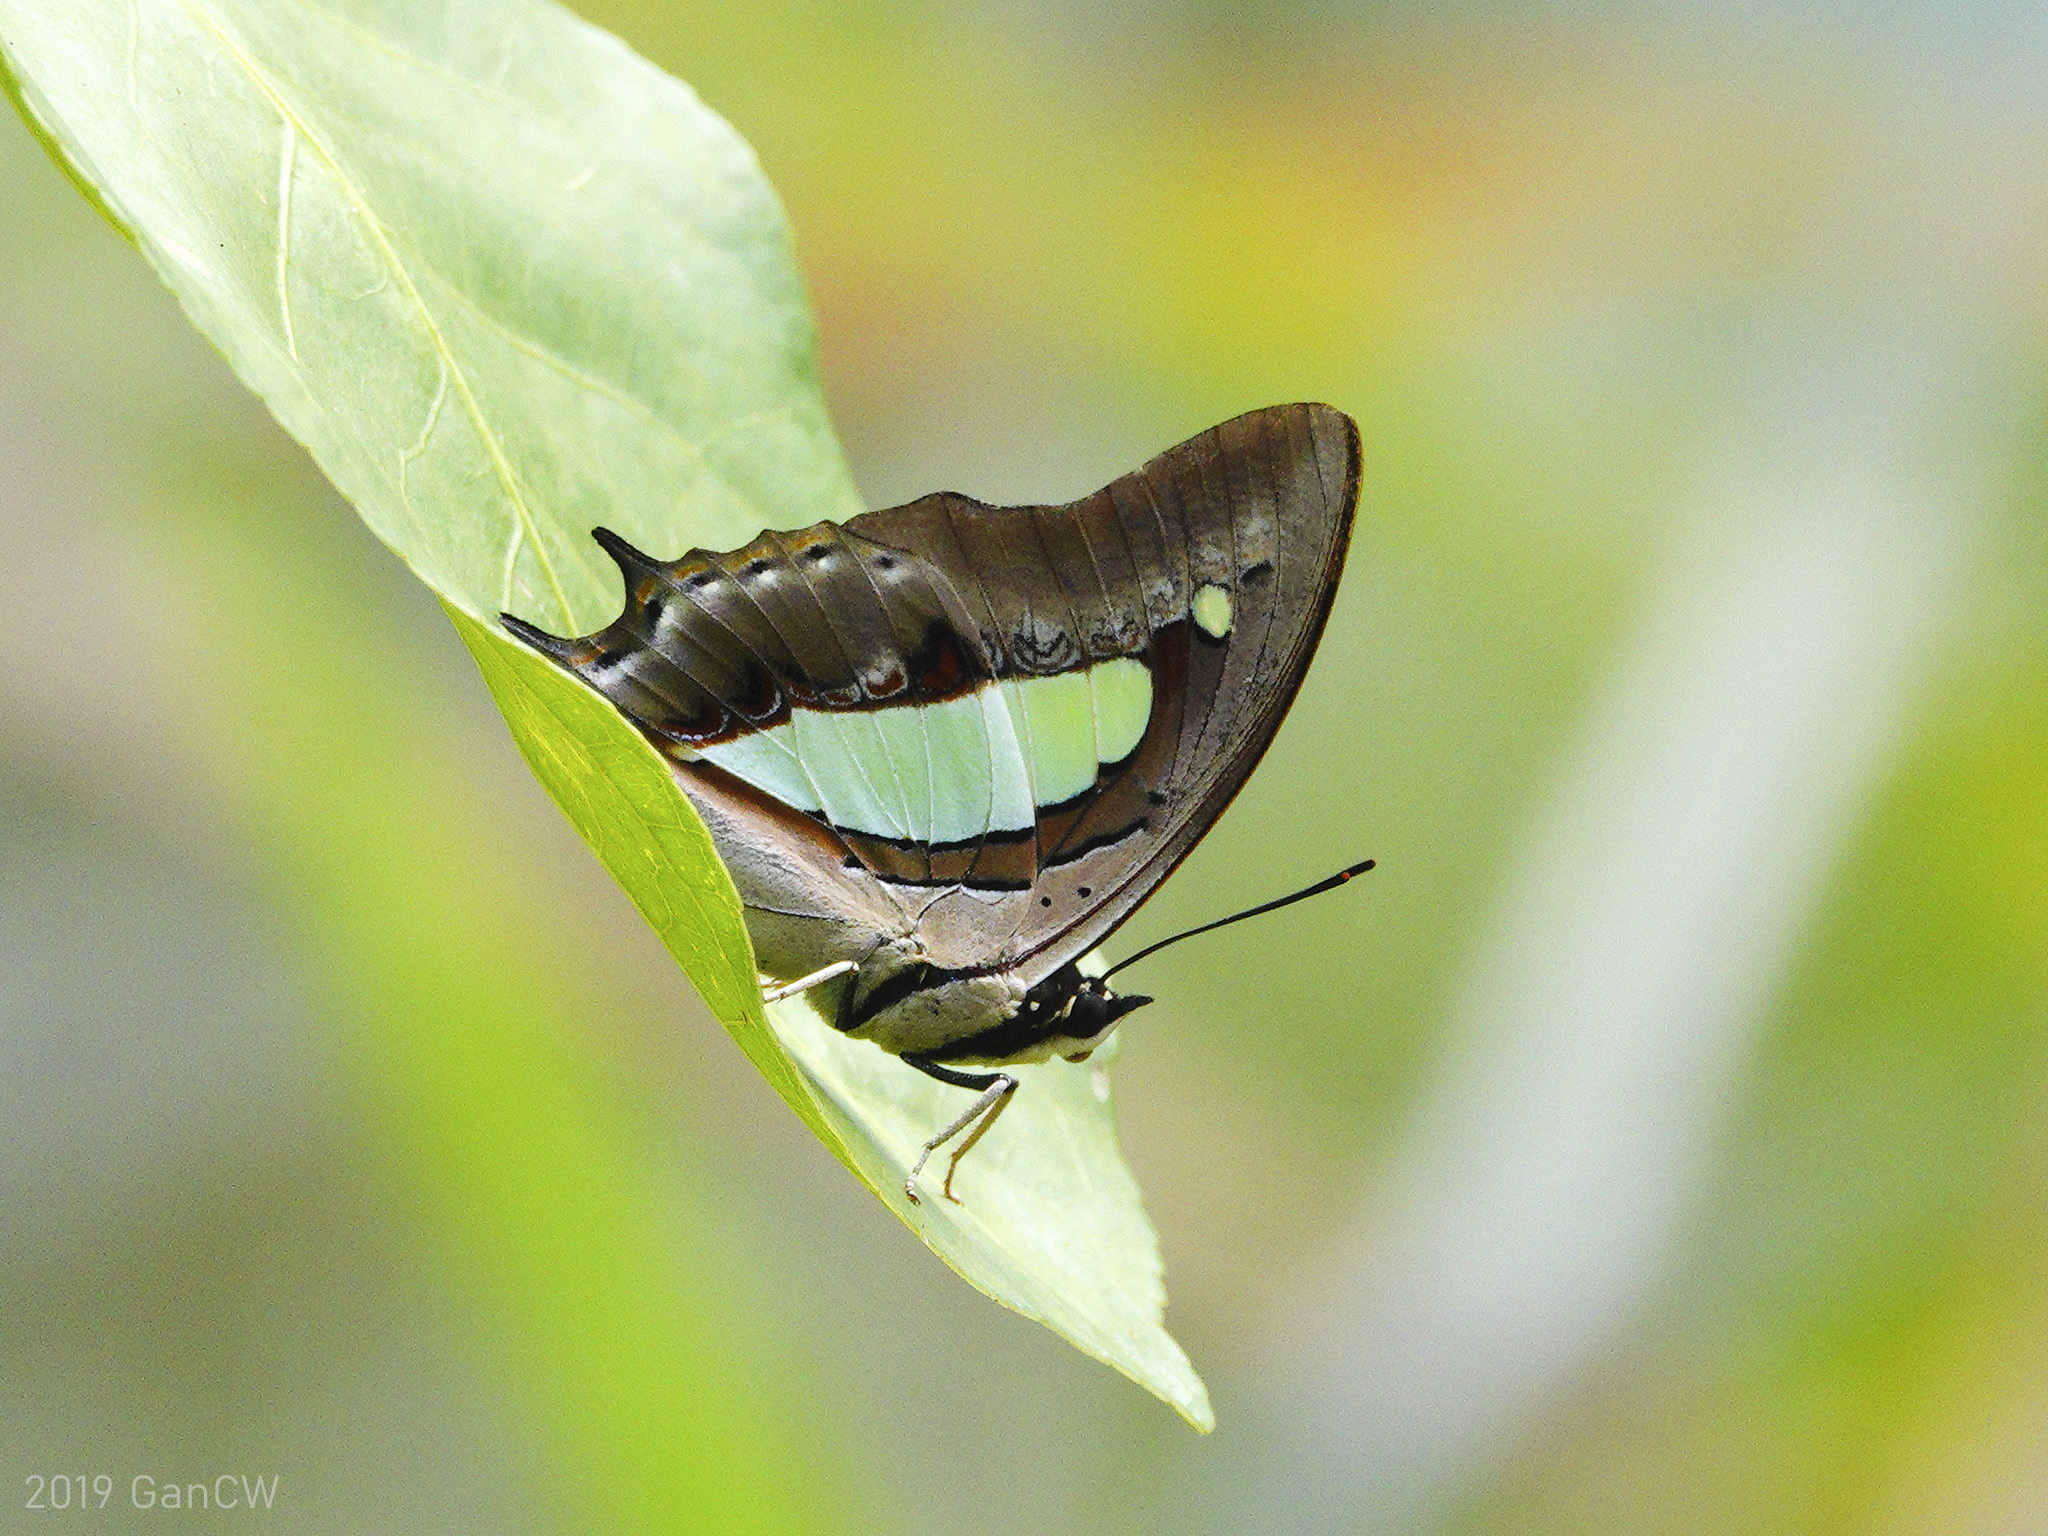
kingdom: Animalia
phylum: Arthropoda
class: Insecta
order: Lepidoptera
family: Nymphalidae
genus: Polyura
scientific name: Polyura athamas
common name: Common nawab
